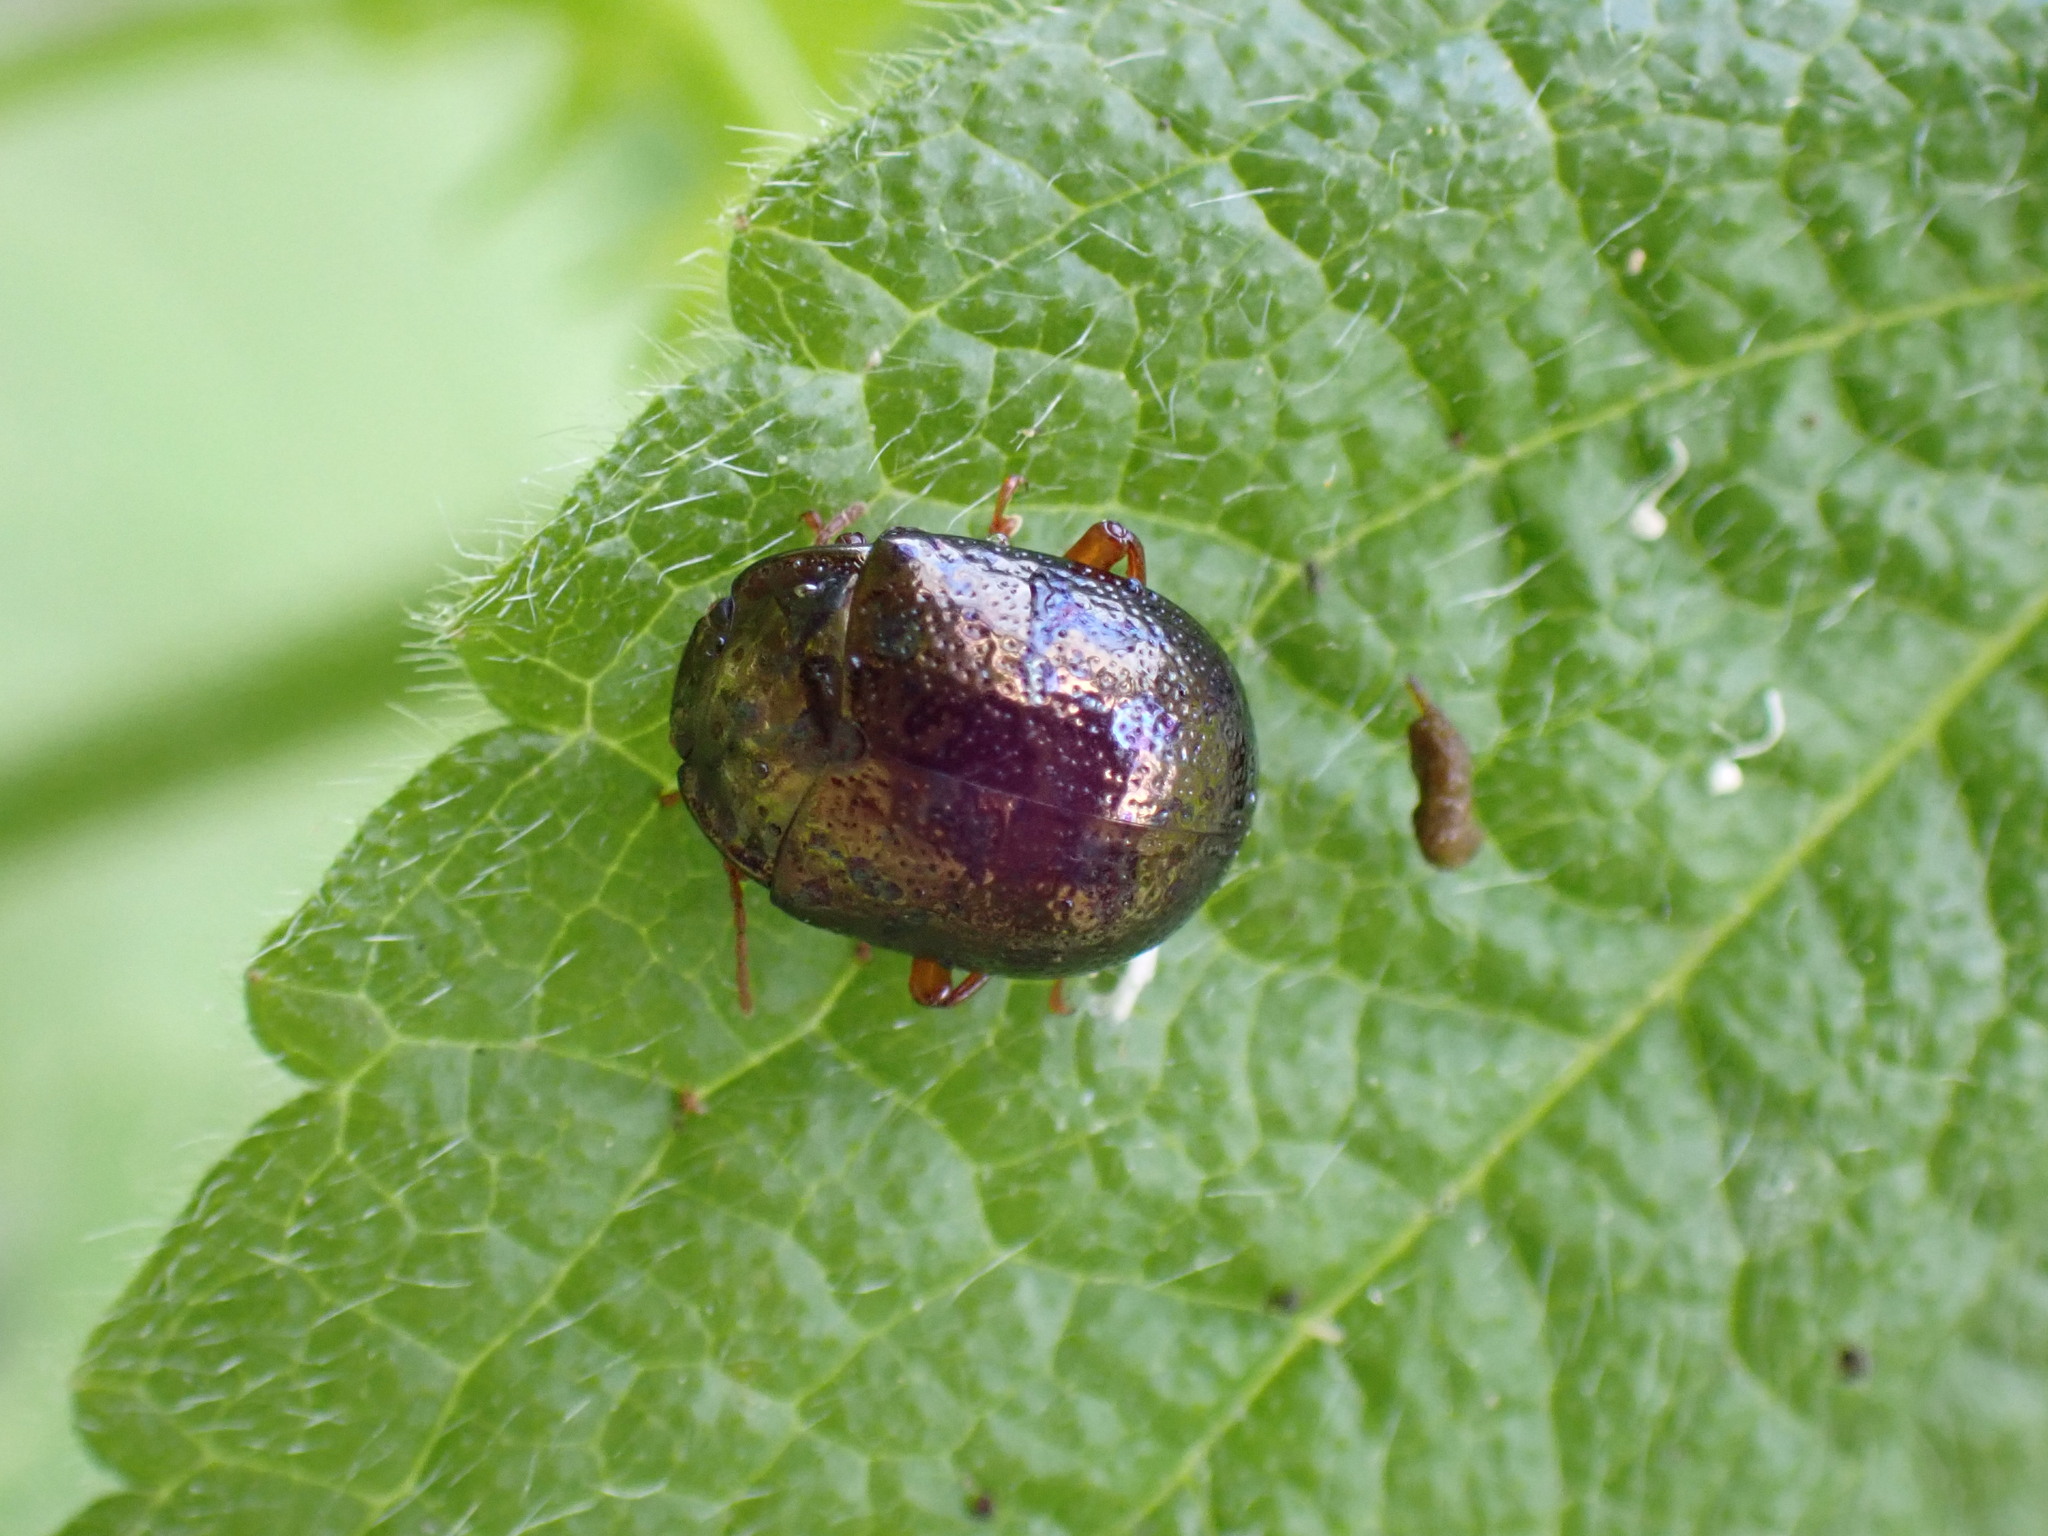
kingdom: Animalia
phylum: Arthropoda
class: Insecta
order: Coleoptera
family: Chrysomelidae
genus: Chrysolina
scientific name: Chrysolina bankii
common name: Leaf beetle
